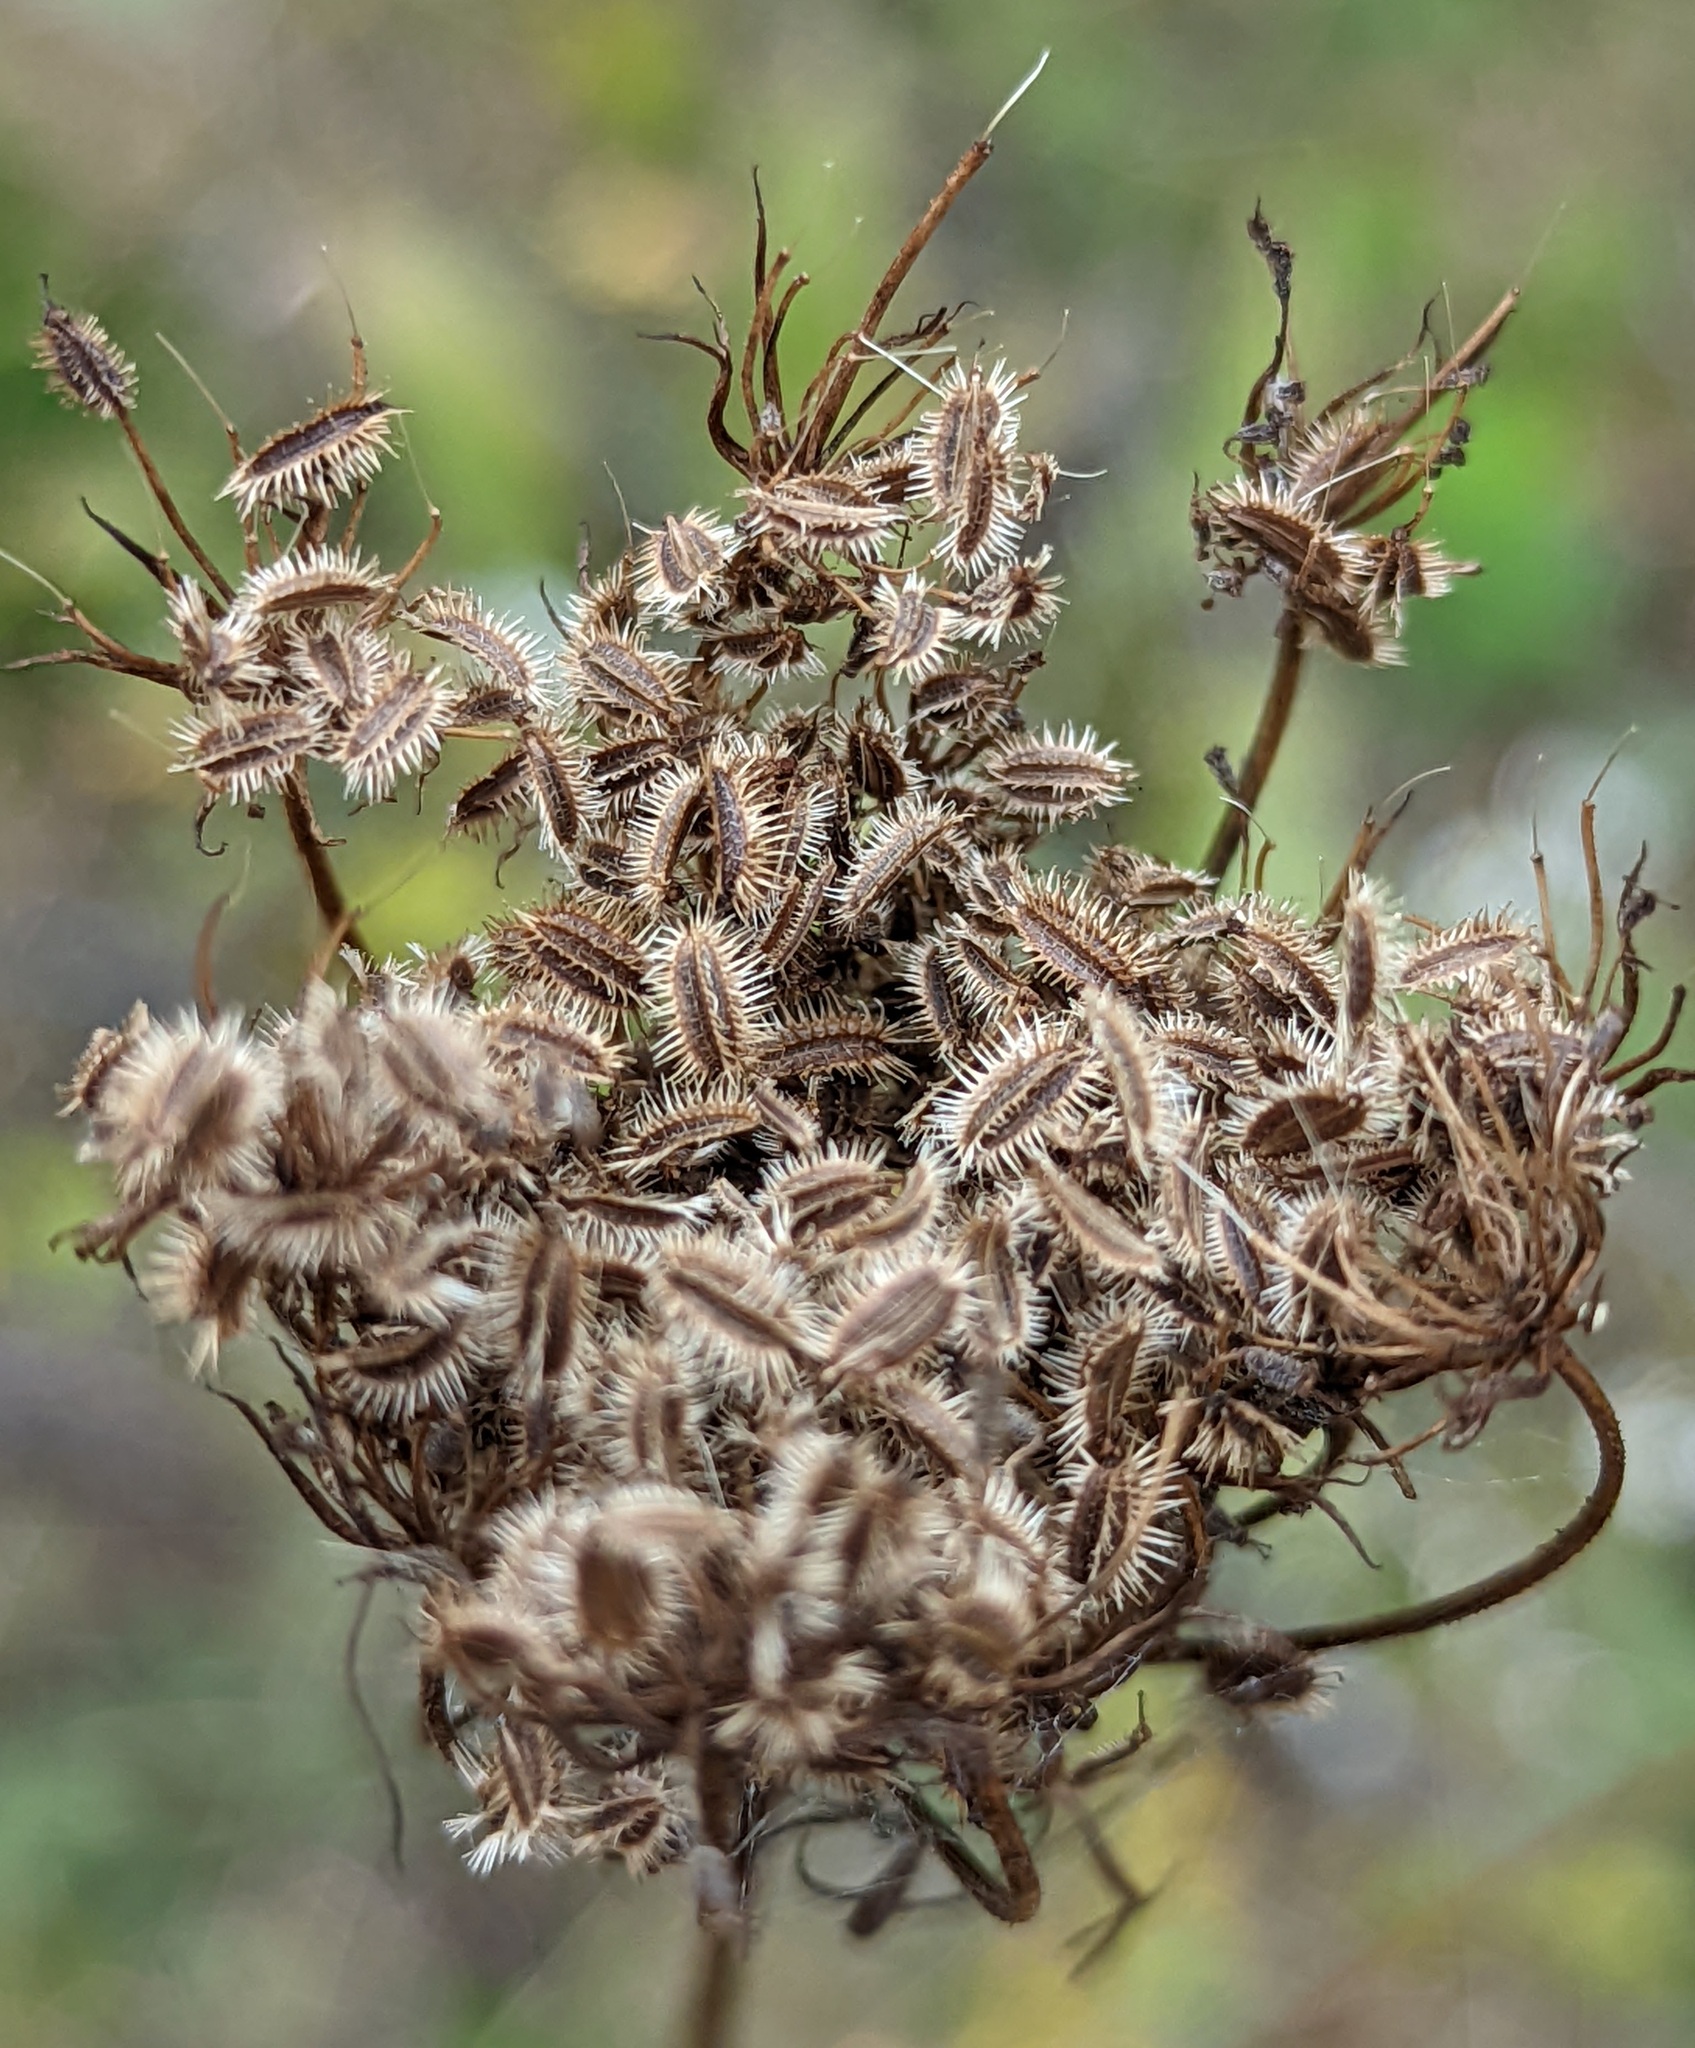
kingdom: Plantae
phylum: Tracheophyta
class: Magnoliopsida
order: Apiales
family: Apiaceae
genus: Daucus
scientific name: Daucus carota
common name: Wild carrot
